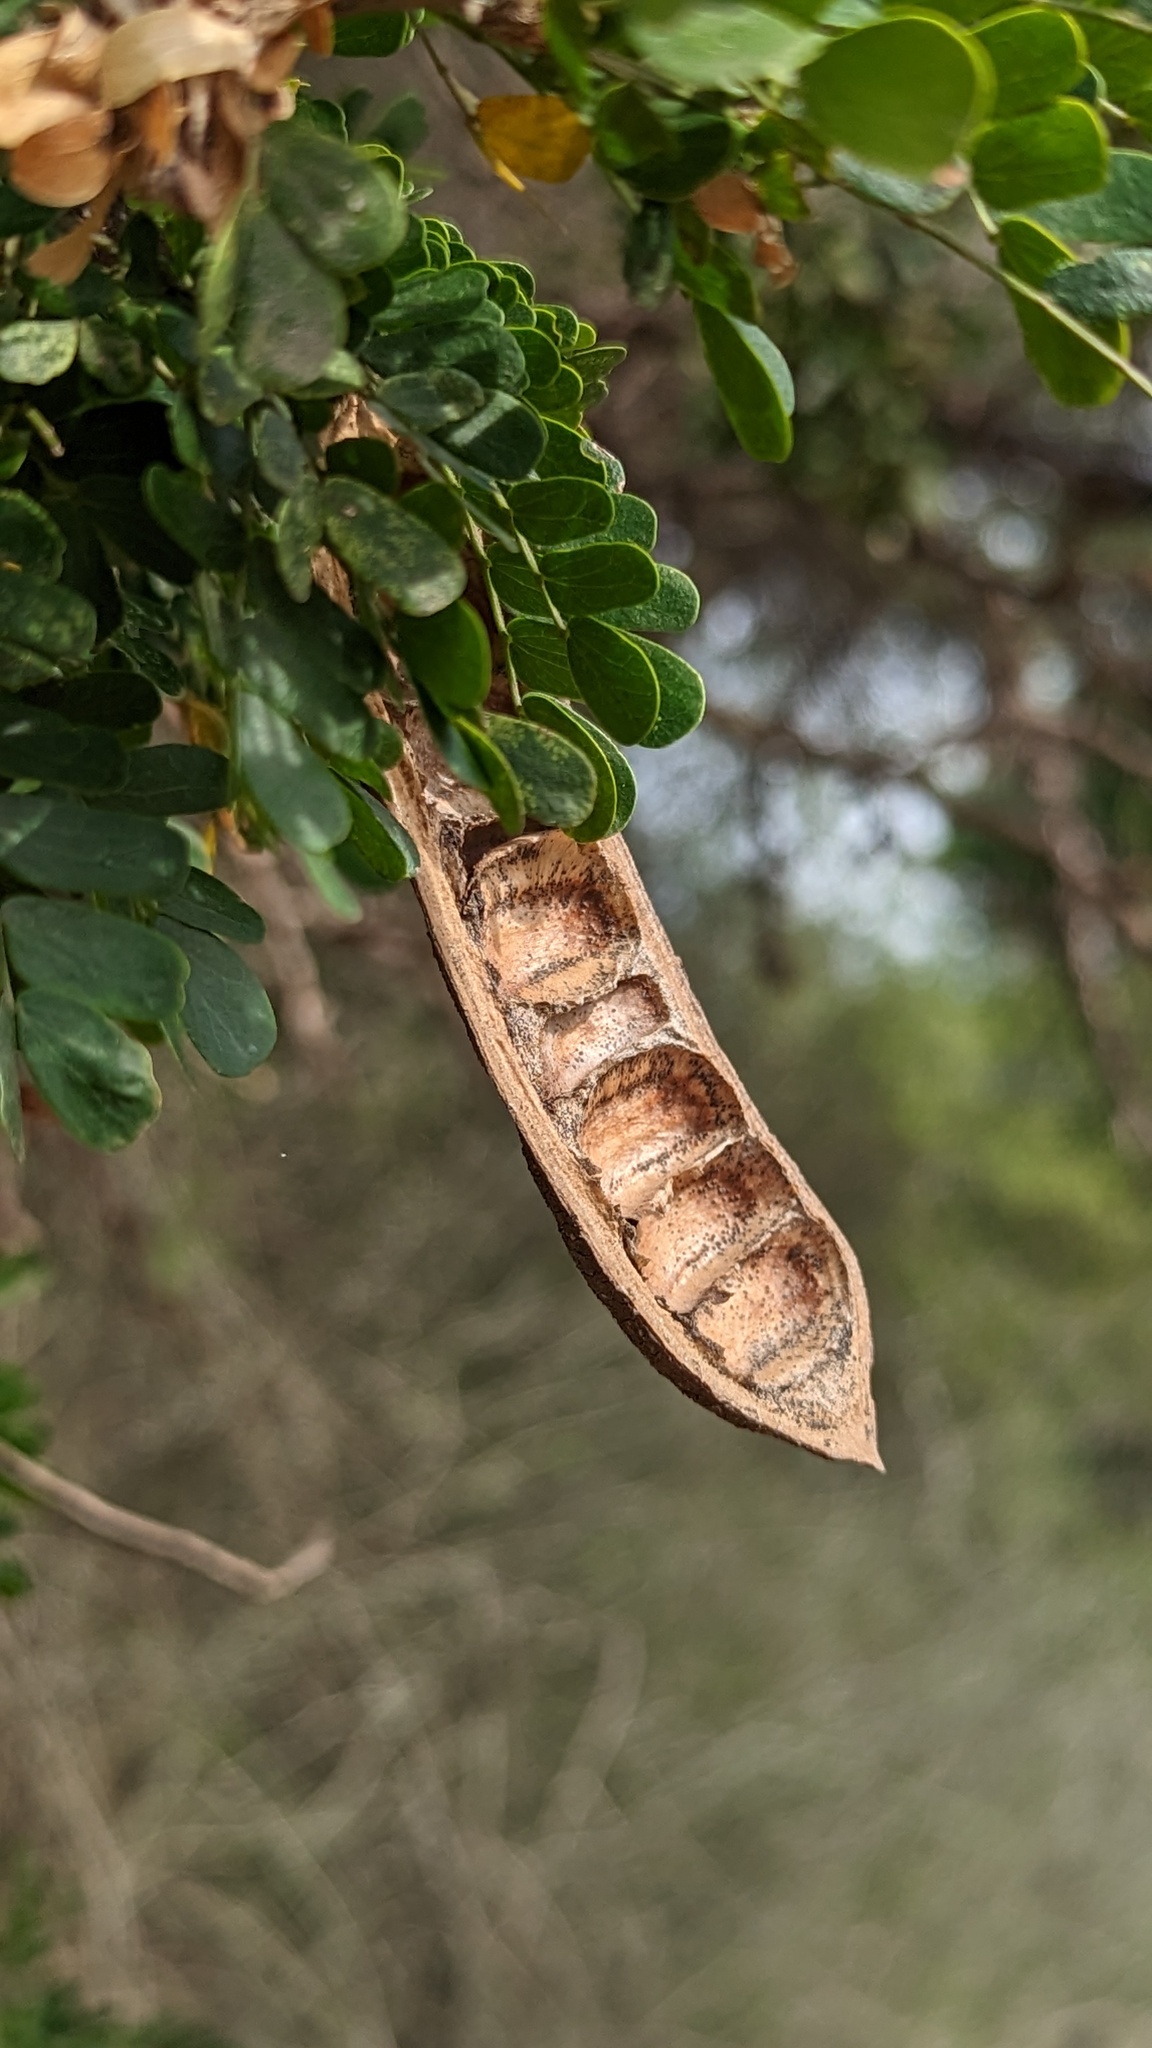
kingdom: Plantae
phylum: Tracheophyta
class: Magnoliopsida
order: Fabales
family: Fabaceae
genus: Ebenopsis
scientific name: Ebenopsis ebano
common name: Ebony blackbead
